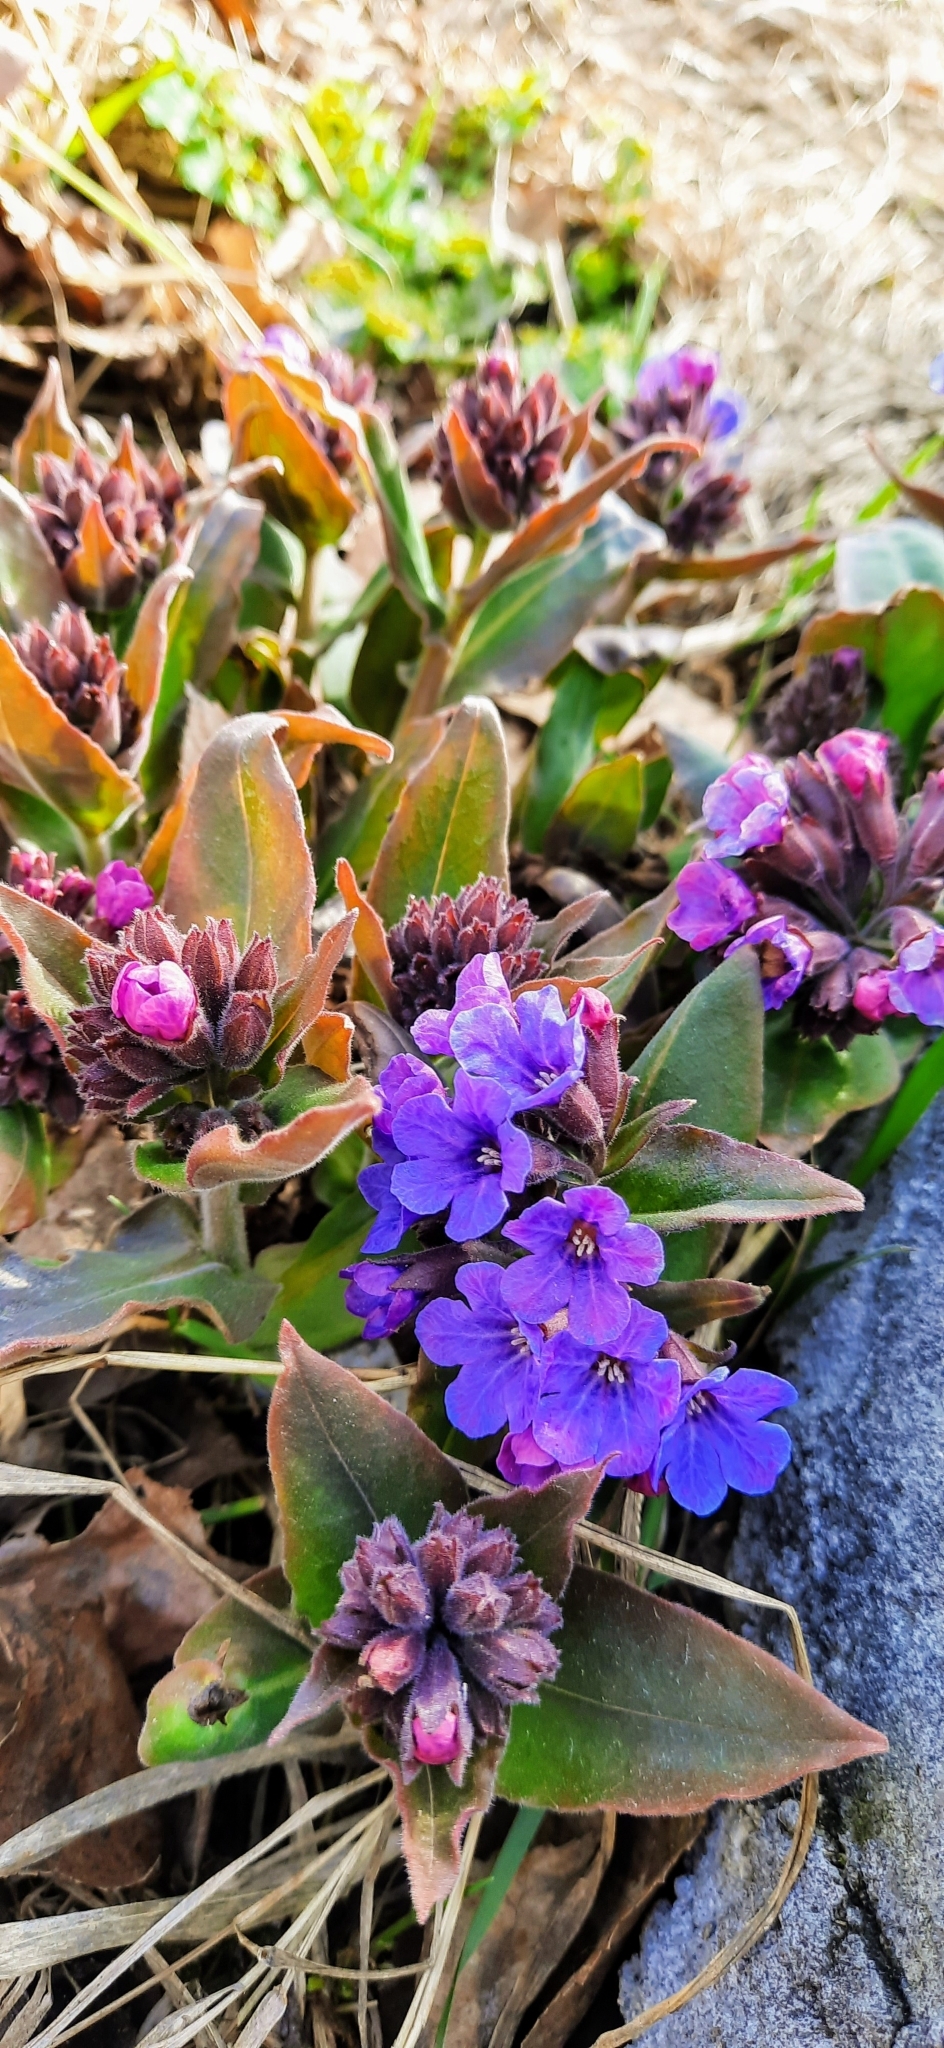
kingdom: Plantae
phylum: Tracheophyta
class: Magnoliopsida
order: Boraginales
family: Boraginaceae
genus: Pulmonaria
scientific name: Pulmonaria mollis
